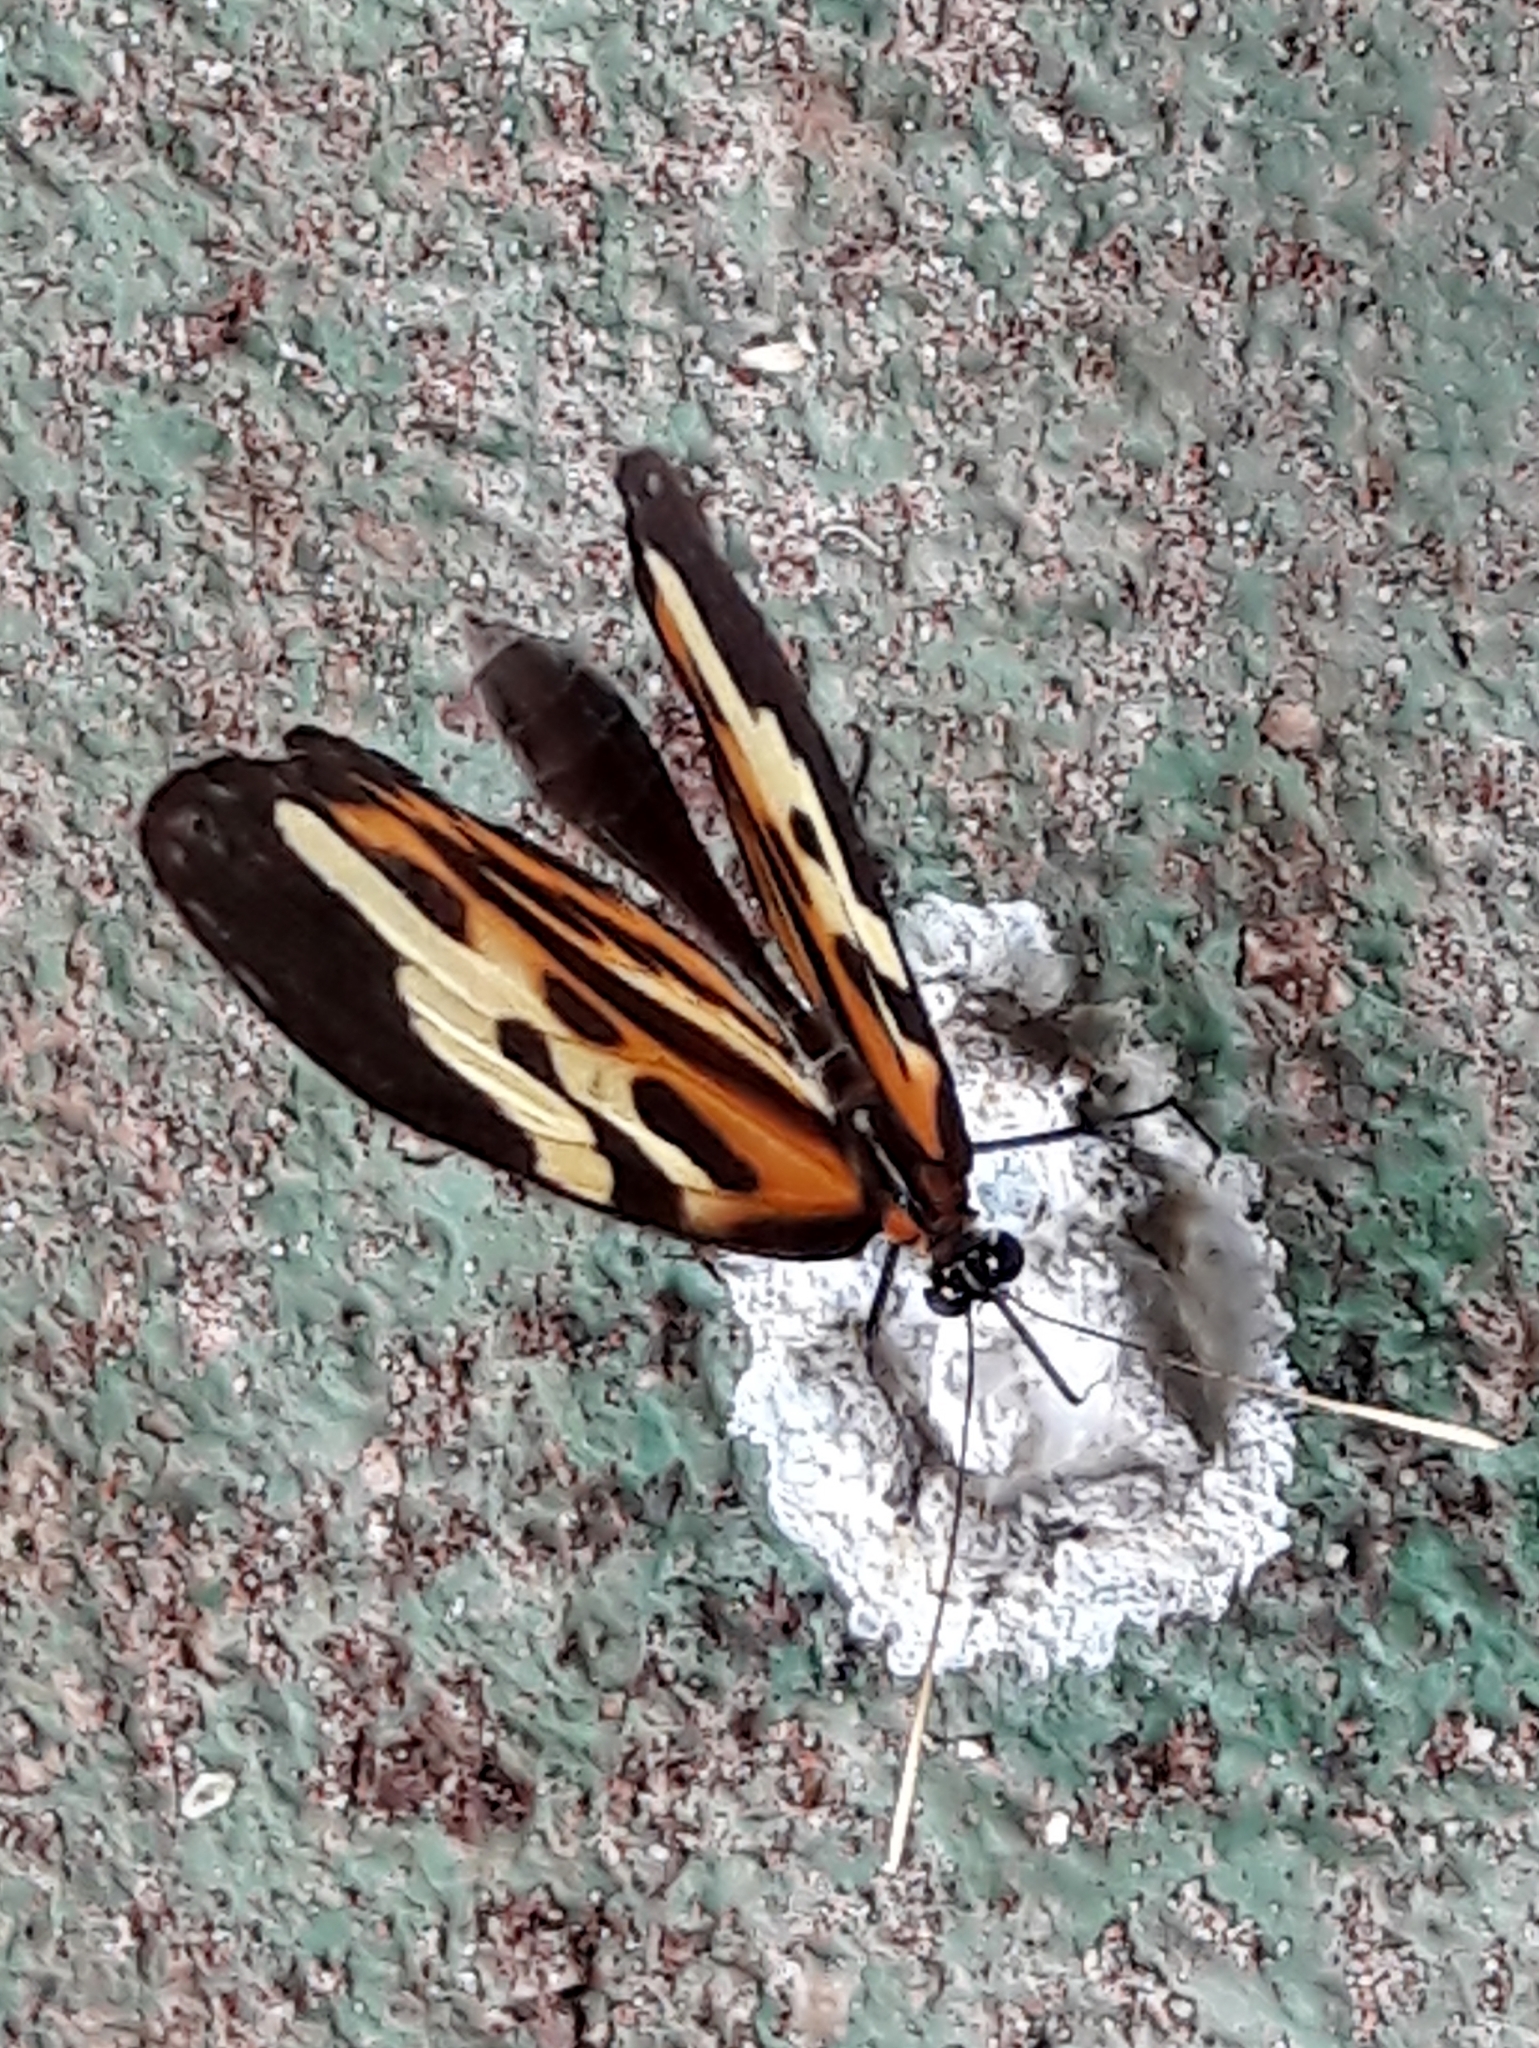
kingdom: Animalia
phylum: Arthropoda
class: Insecta
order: Lepidoptera
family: Nymphalidae
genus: Mechanitis
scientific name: Mechanitis polymnia
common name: Disturbed tigerwing
